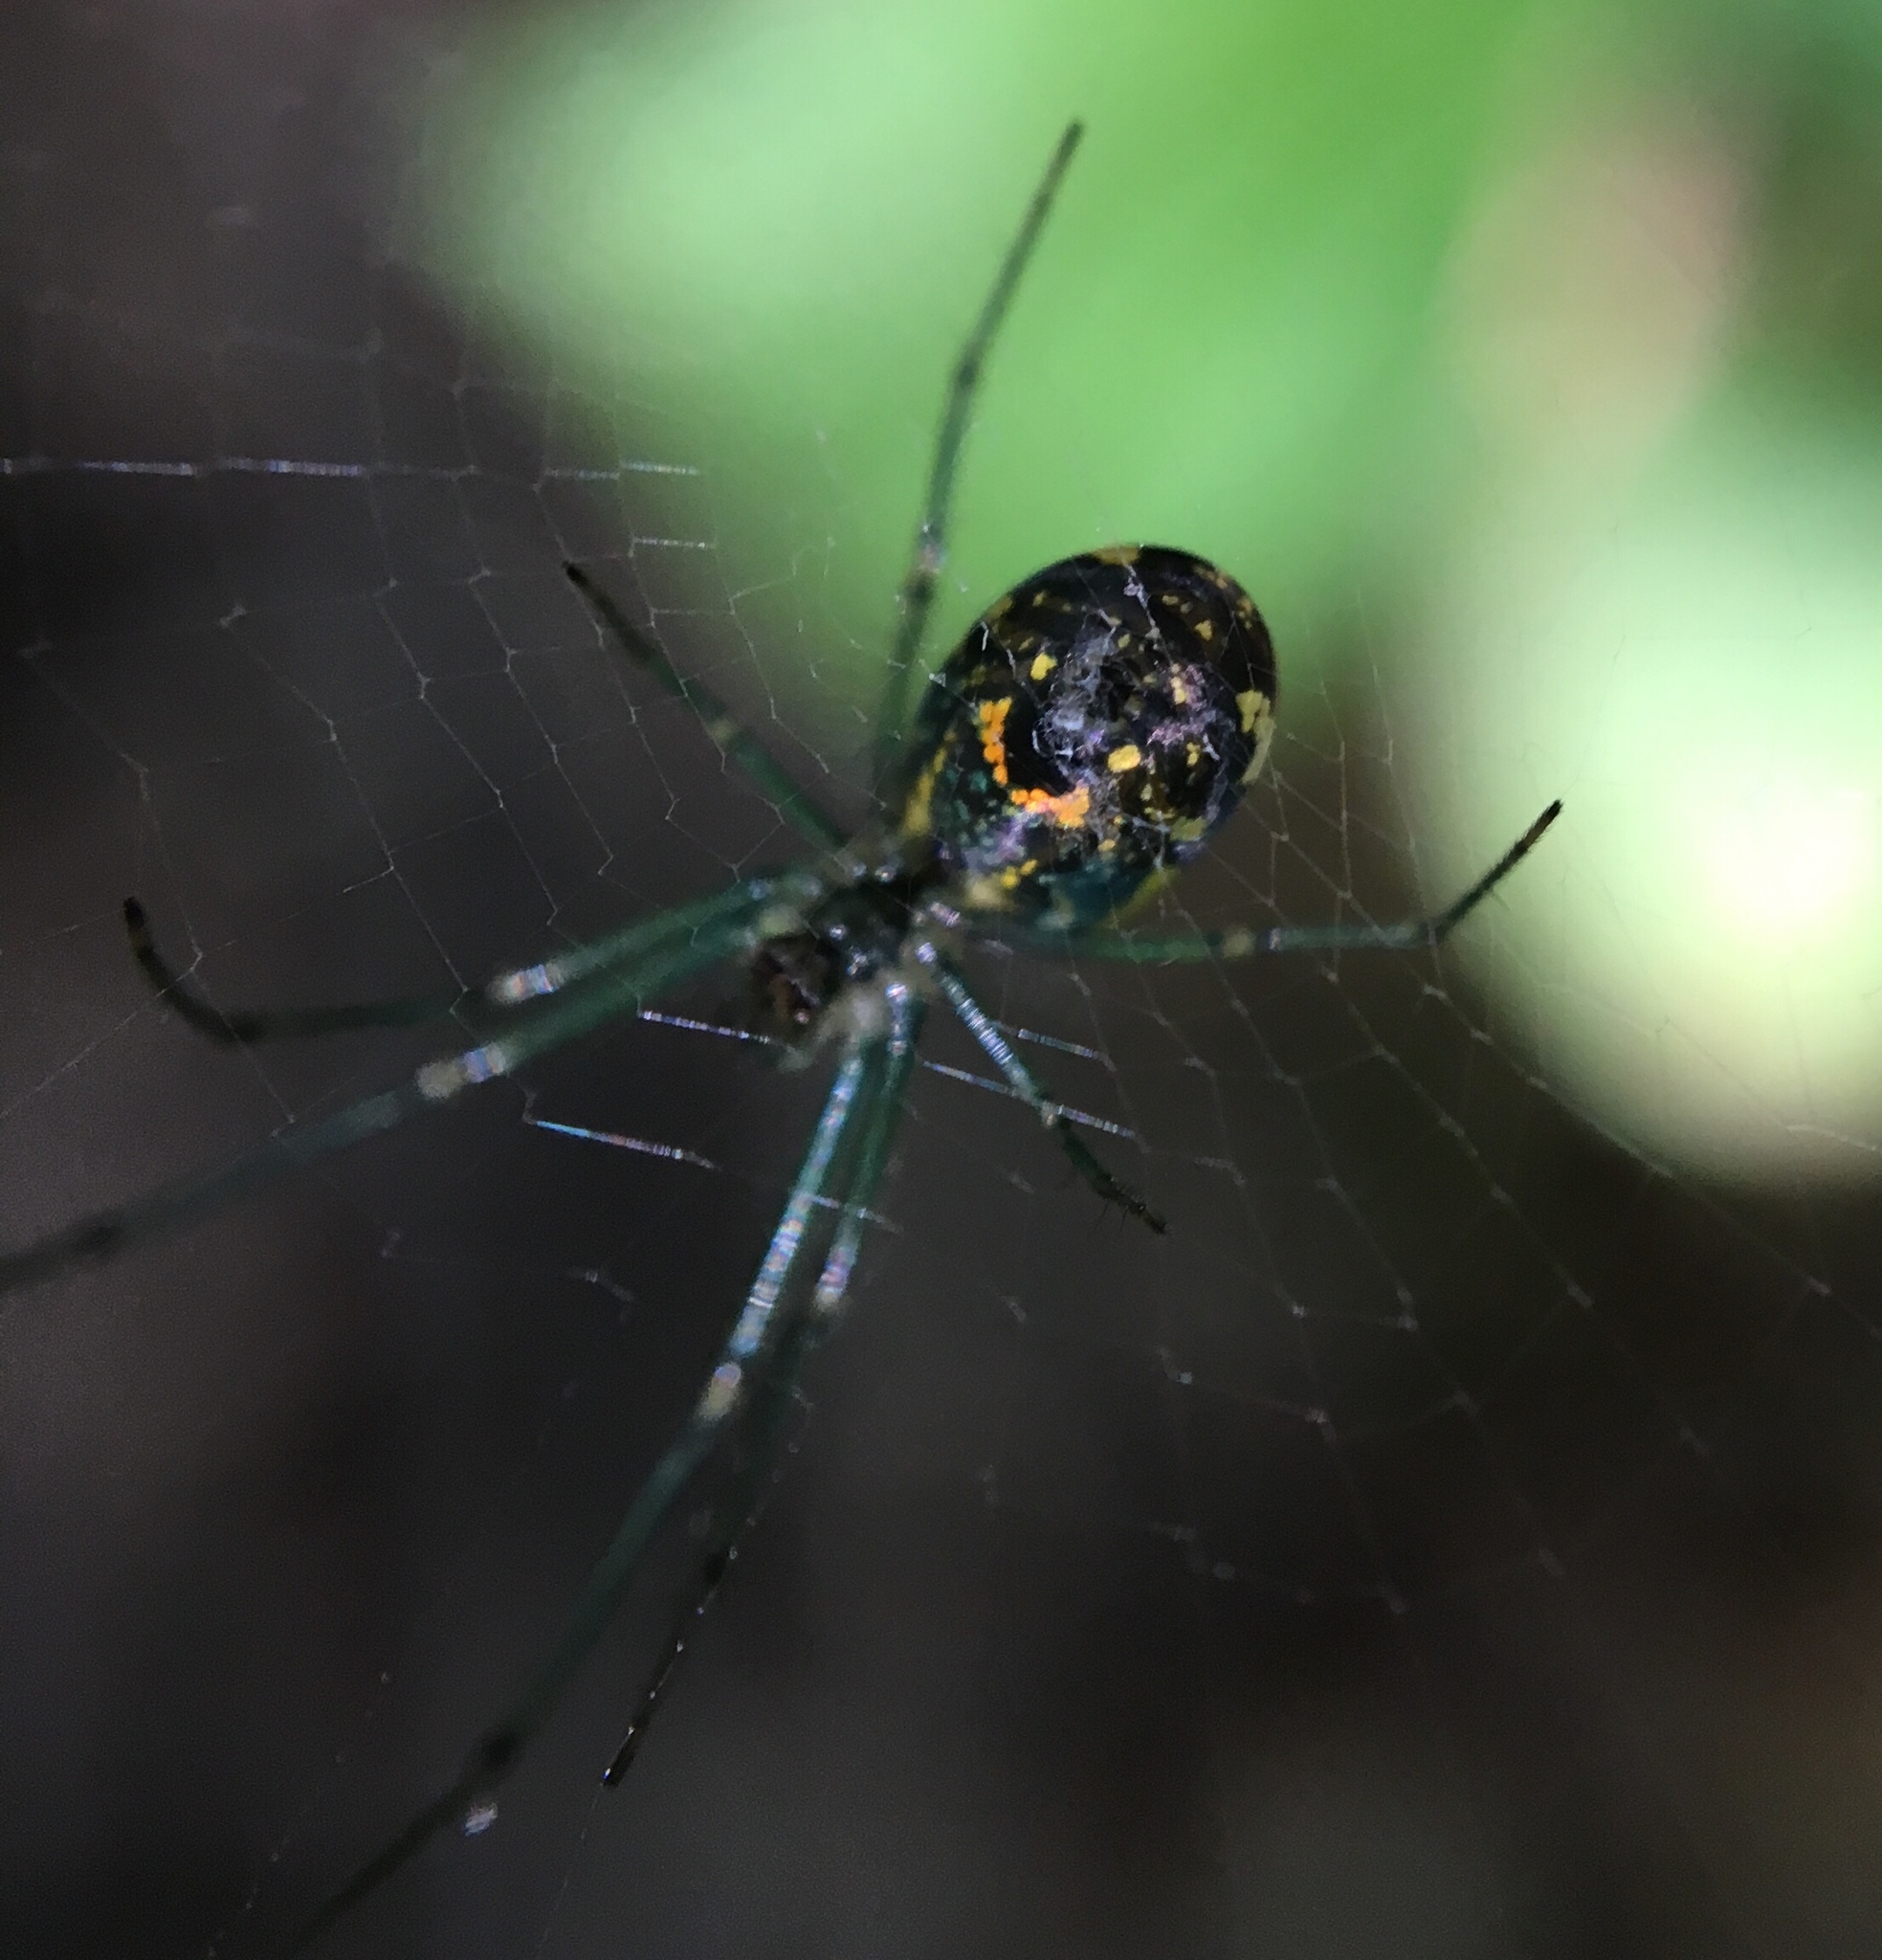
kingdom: Animalia
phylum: Arthropoda
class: Arachnida
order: Araneae
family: Tetragnathidae
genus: Leucauge
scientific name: Leucauge venusta
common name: Longjawed orb weavers
